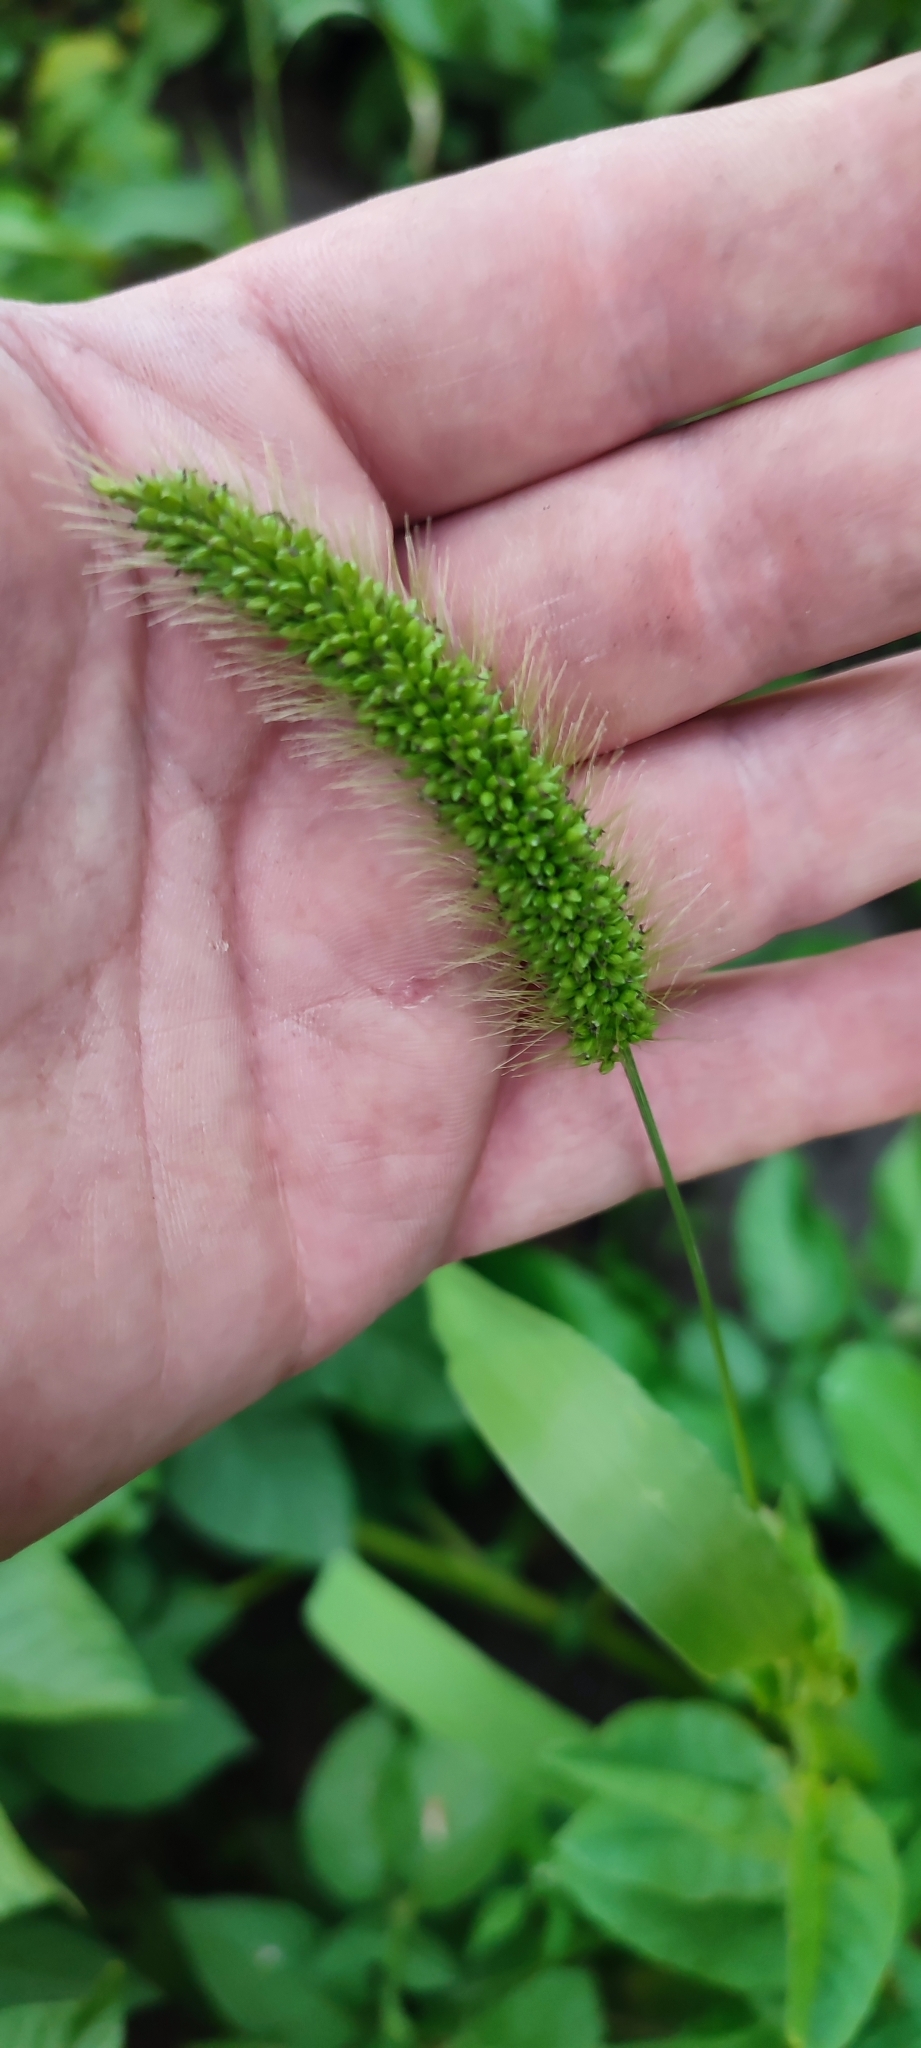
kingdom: Plantae
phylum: Tracheophyta
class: Liliopsida
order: Poales
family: Poaceae
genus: Setaria
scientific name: Setaria viridis
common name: Green bristlegrass
